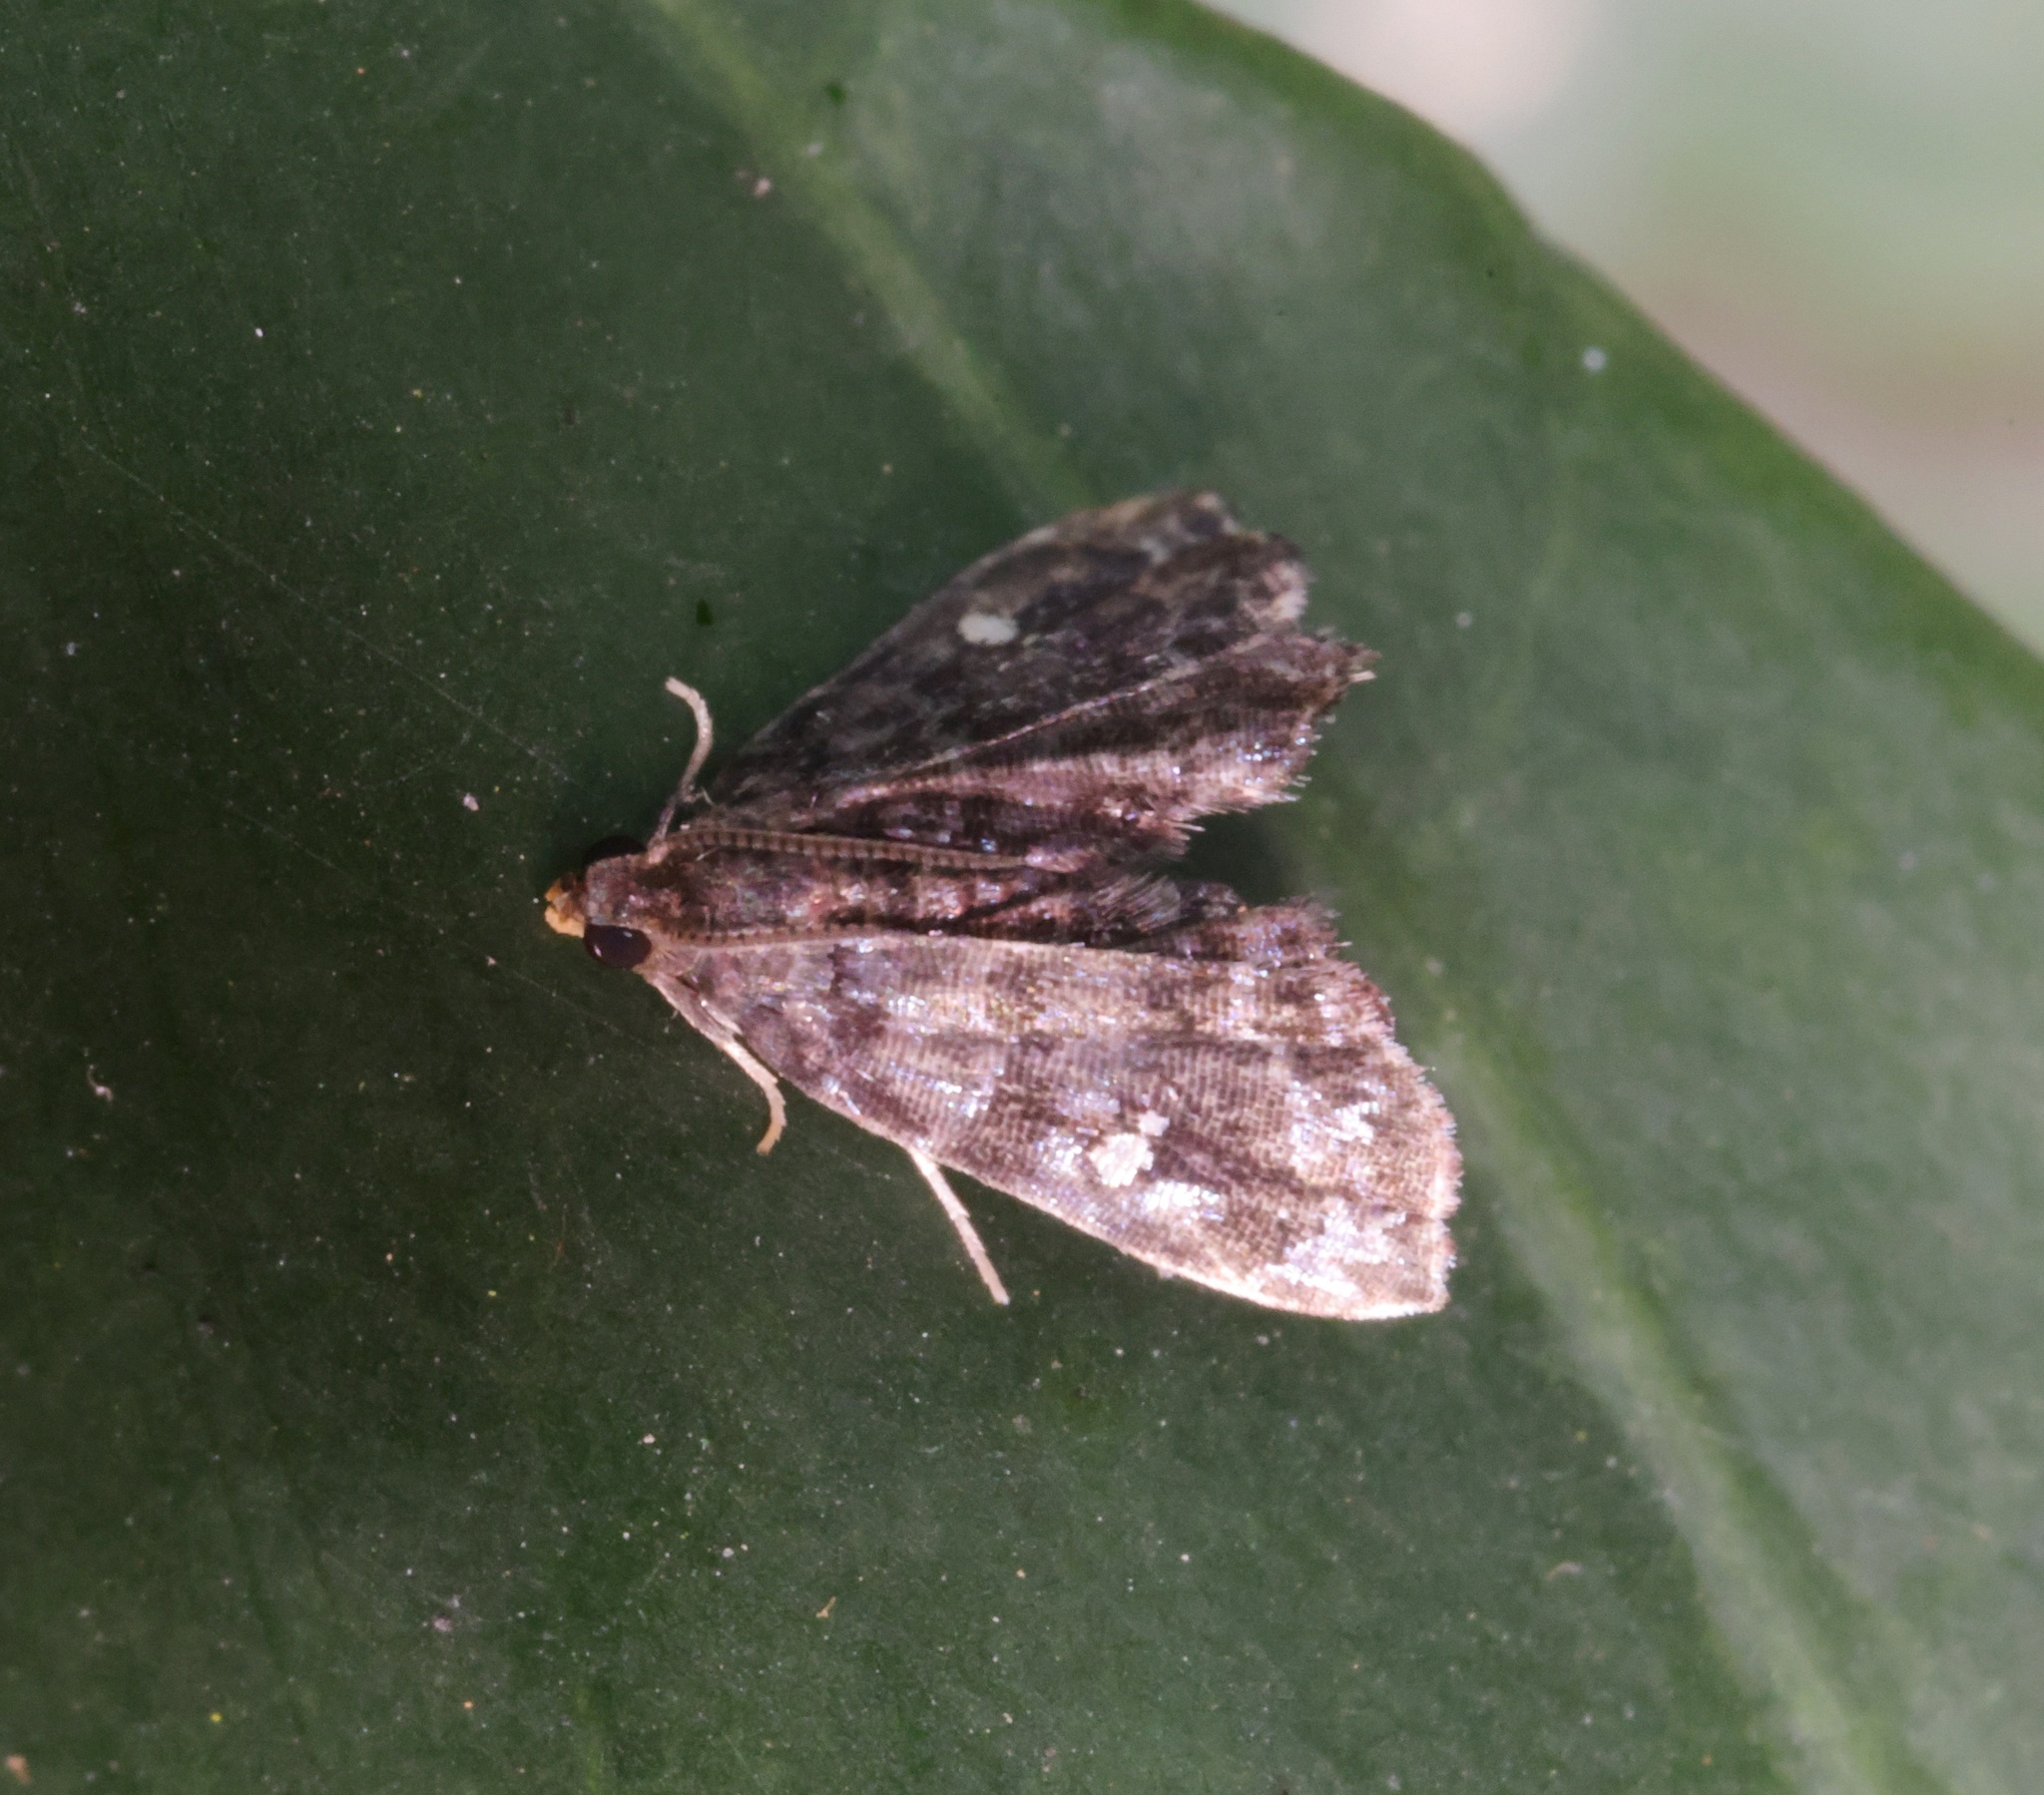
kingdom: Animalia
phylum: Arthropoda
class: Insecta
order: Lepidoptera
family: Pyralidae
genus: Drosophantis
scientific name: Drosophantis caeruleata
